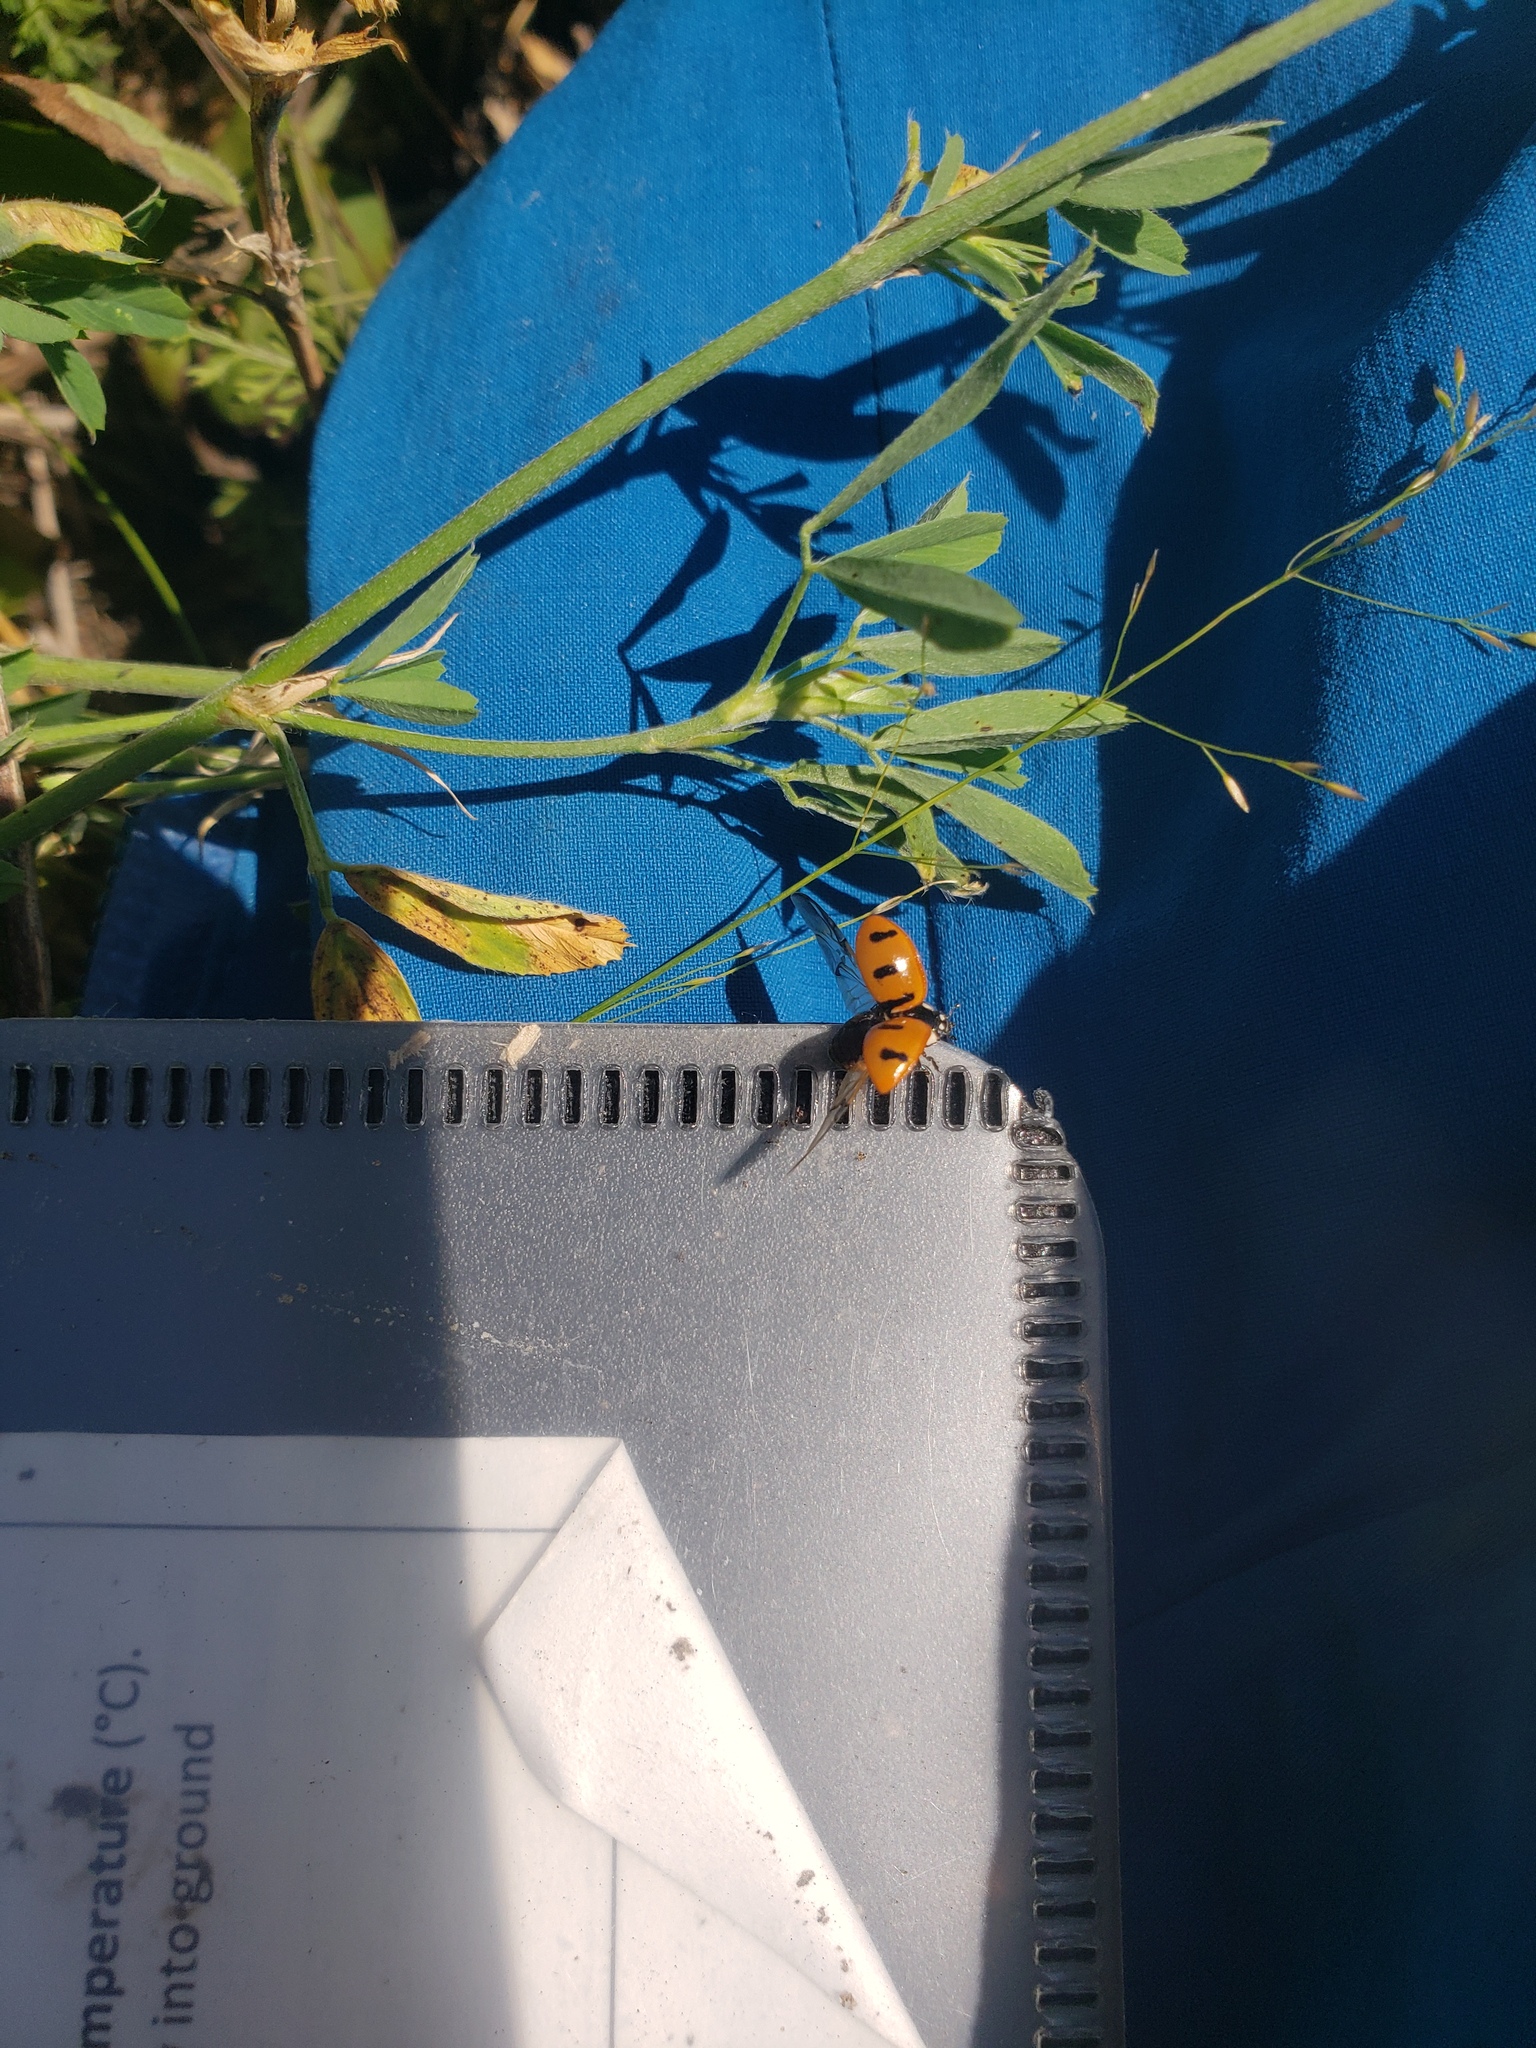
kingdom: Animalia
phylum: Arthropoda
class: Insecta
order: Coleoptera
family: Coccinellidae
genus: Coccinella
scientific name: Coccinella transversoguttata
